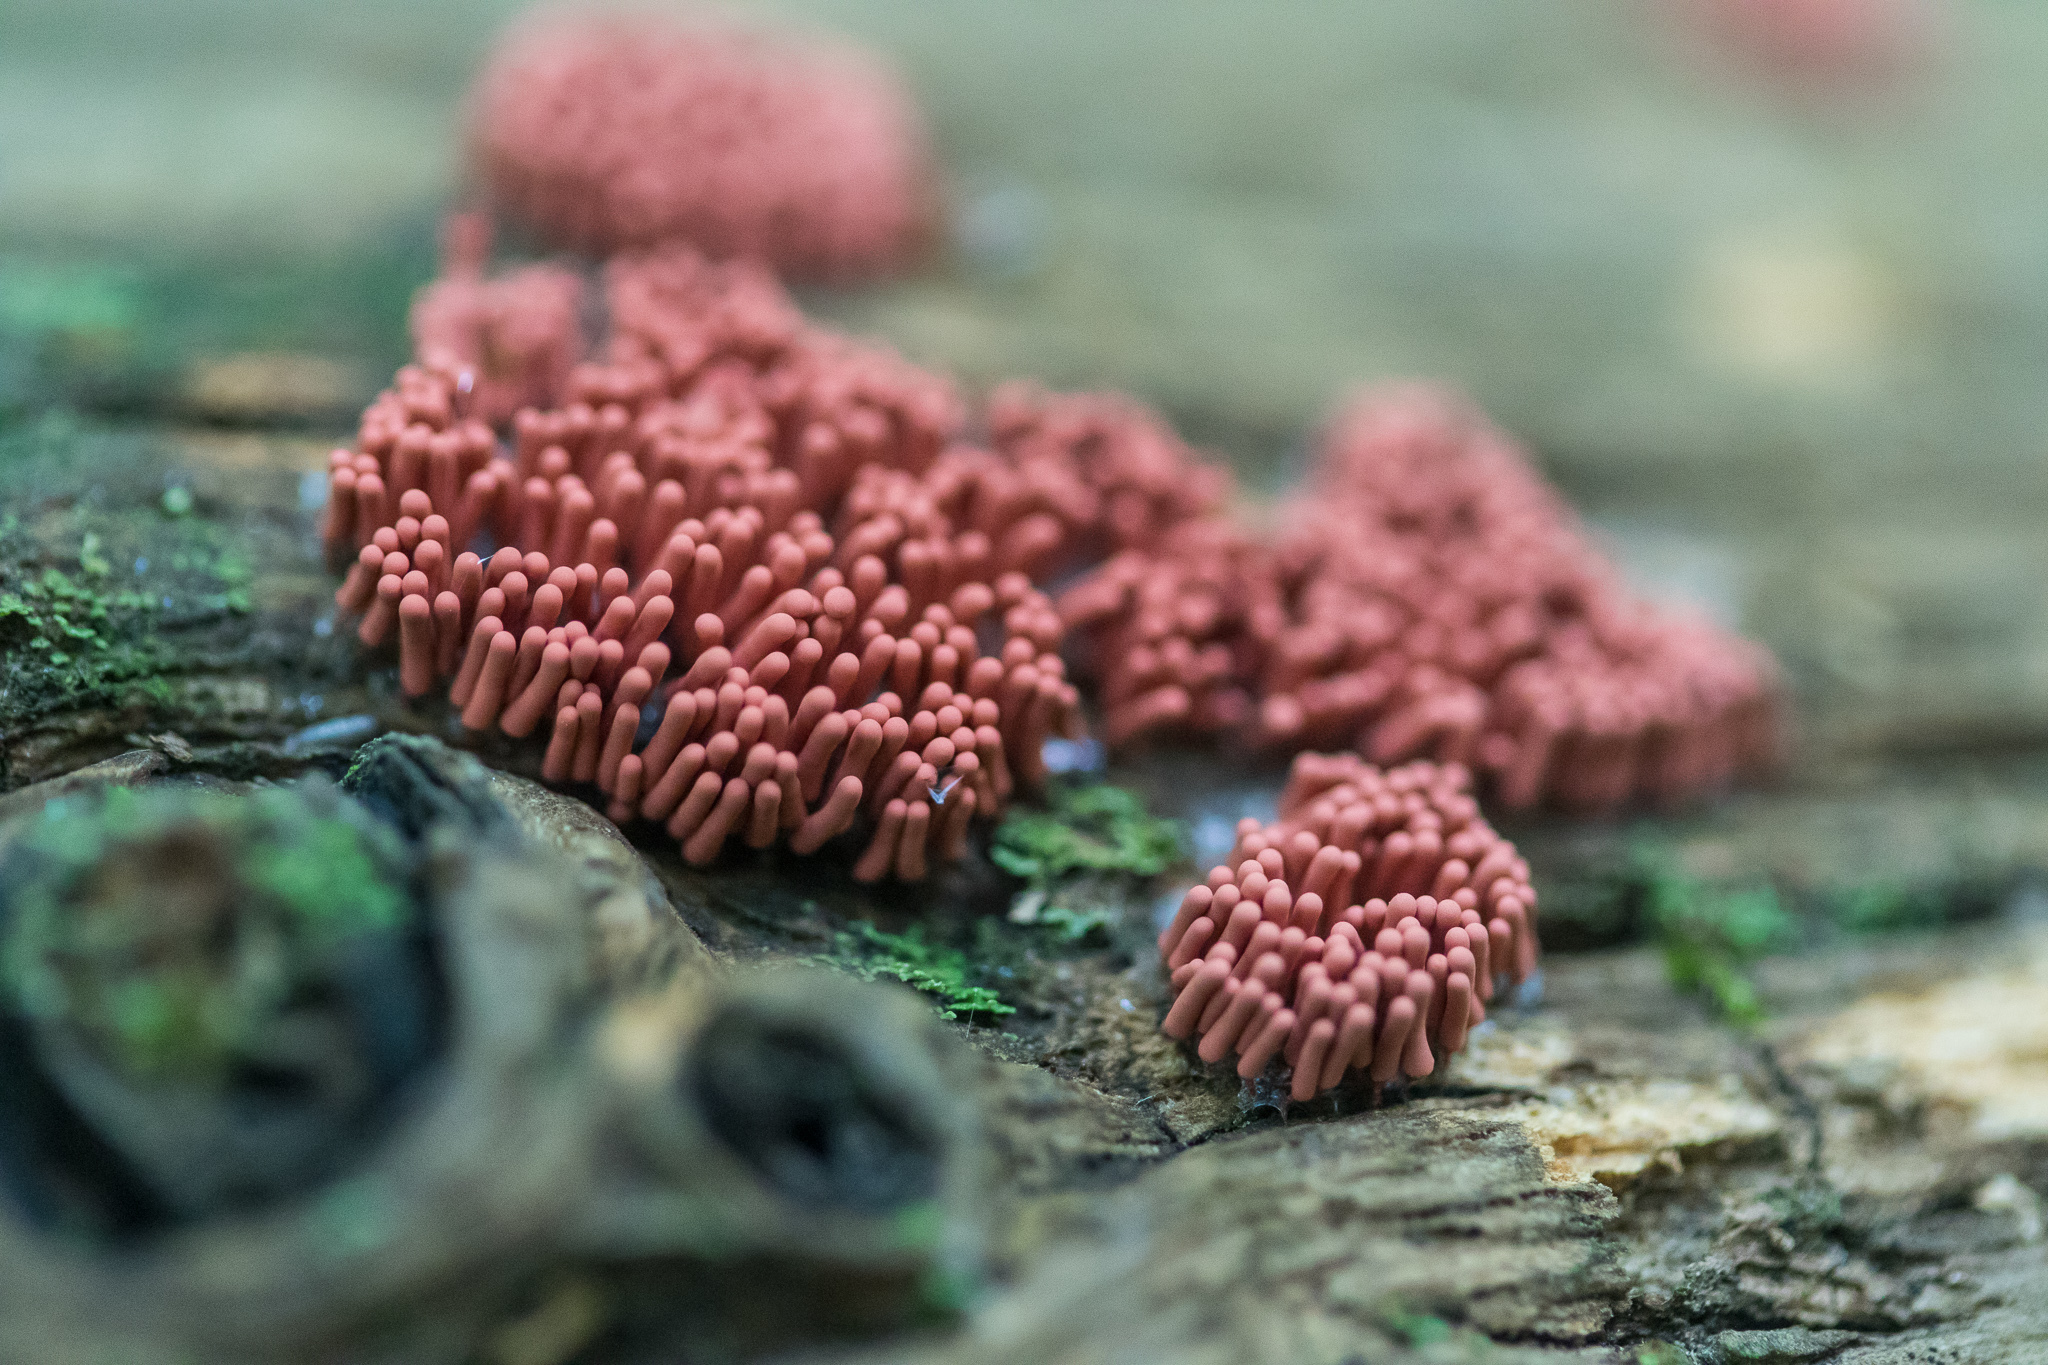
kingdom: Protozoa
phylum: Mycetozoa
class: Myxomycetes
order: Trichiales
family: Arcyriaceae
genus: Arcyria
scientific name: Arcyria denudata
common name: Carnival candy slime mold
